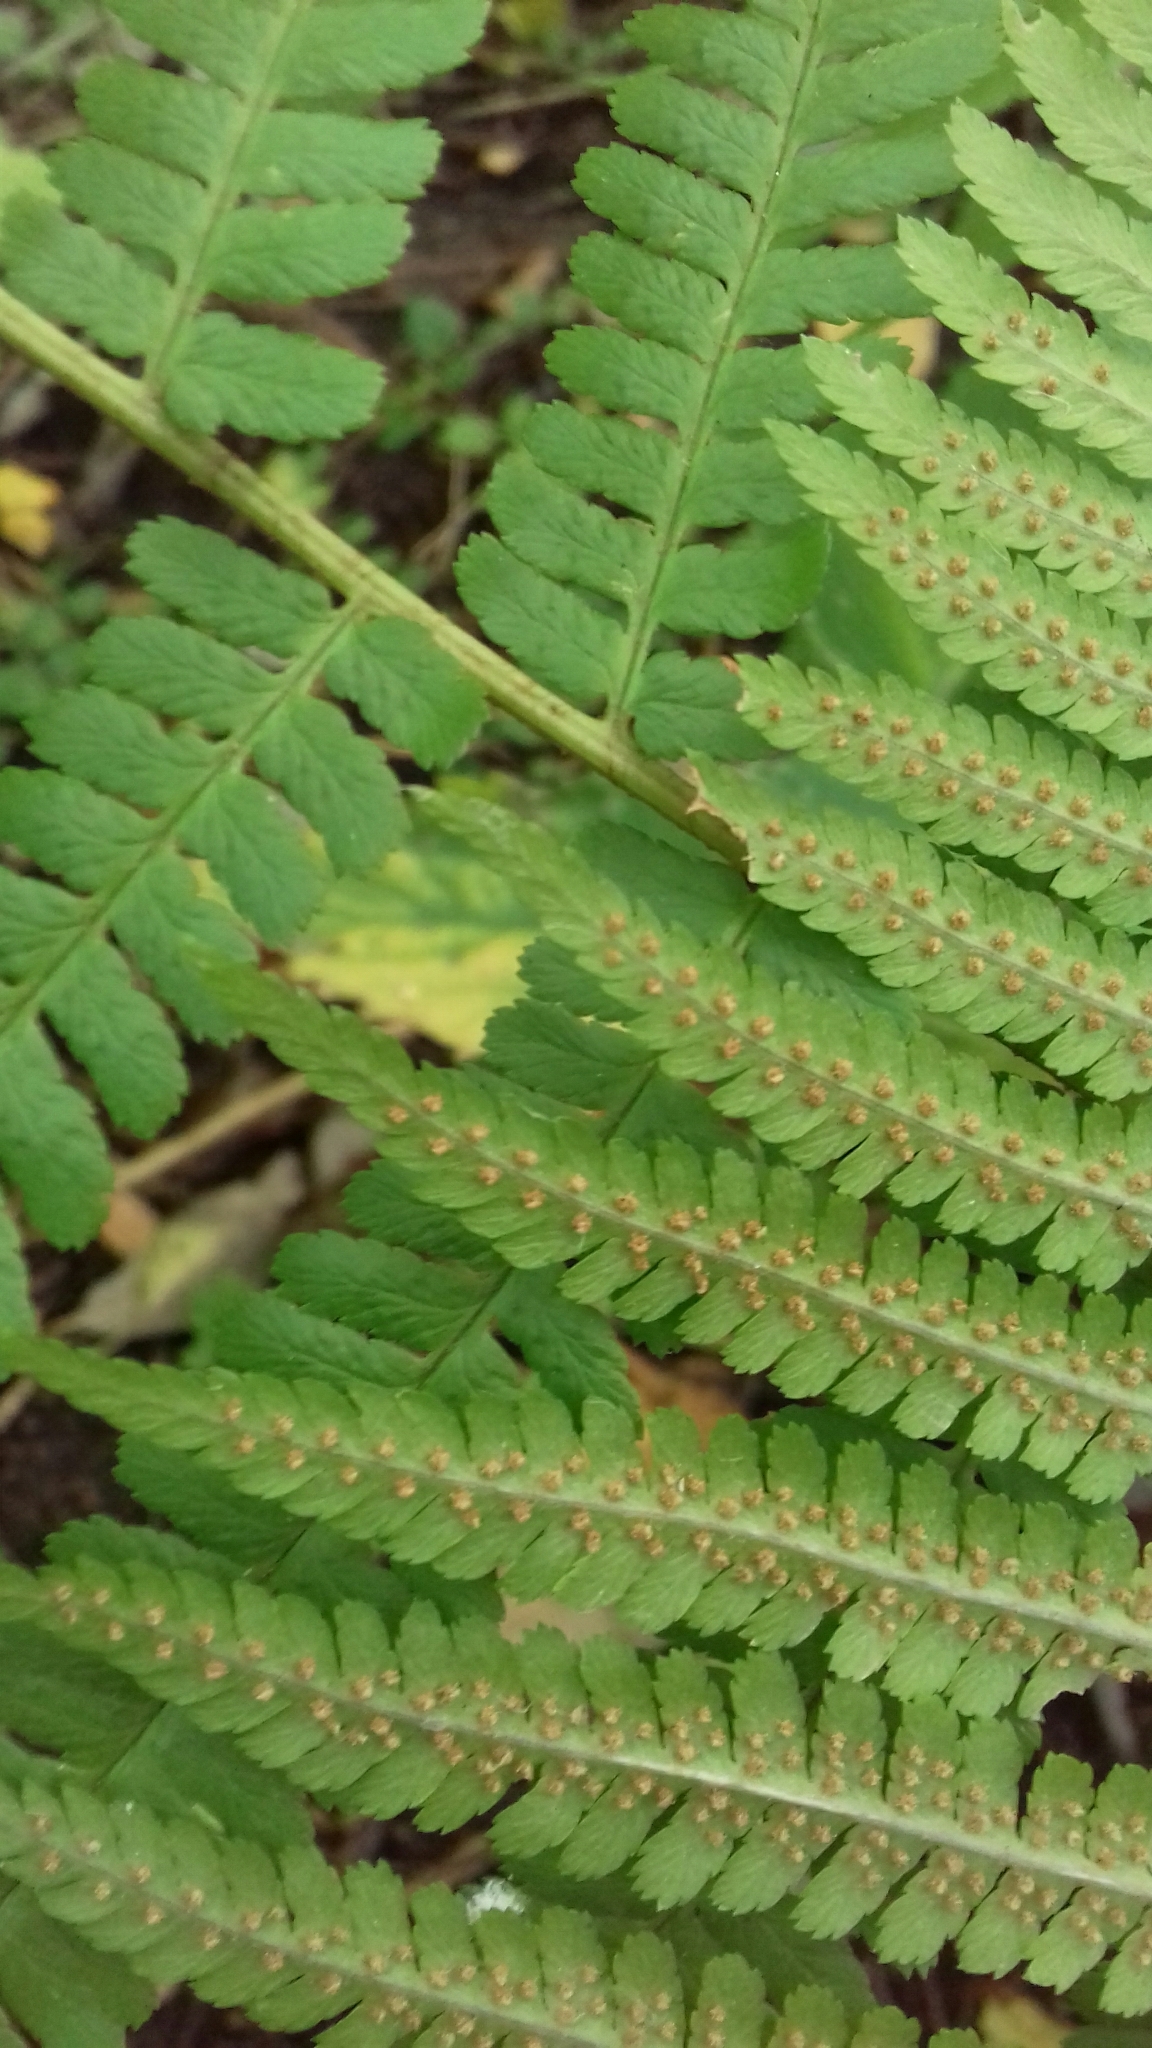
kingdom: Plantae
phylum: Tracheophyta
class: Polypodiopsida
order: Polypodiales
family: Dryopteridaceae
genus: Dryopteris
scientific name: Dryopteris filix-mas
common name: Male fern
